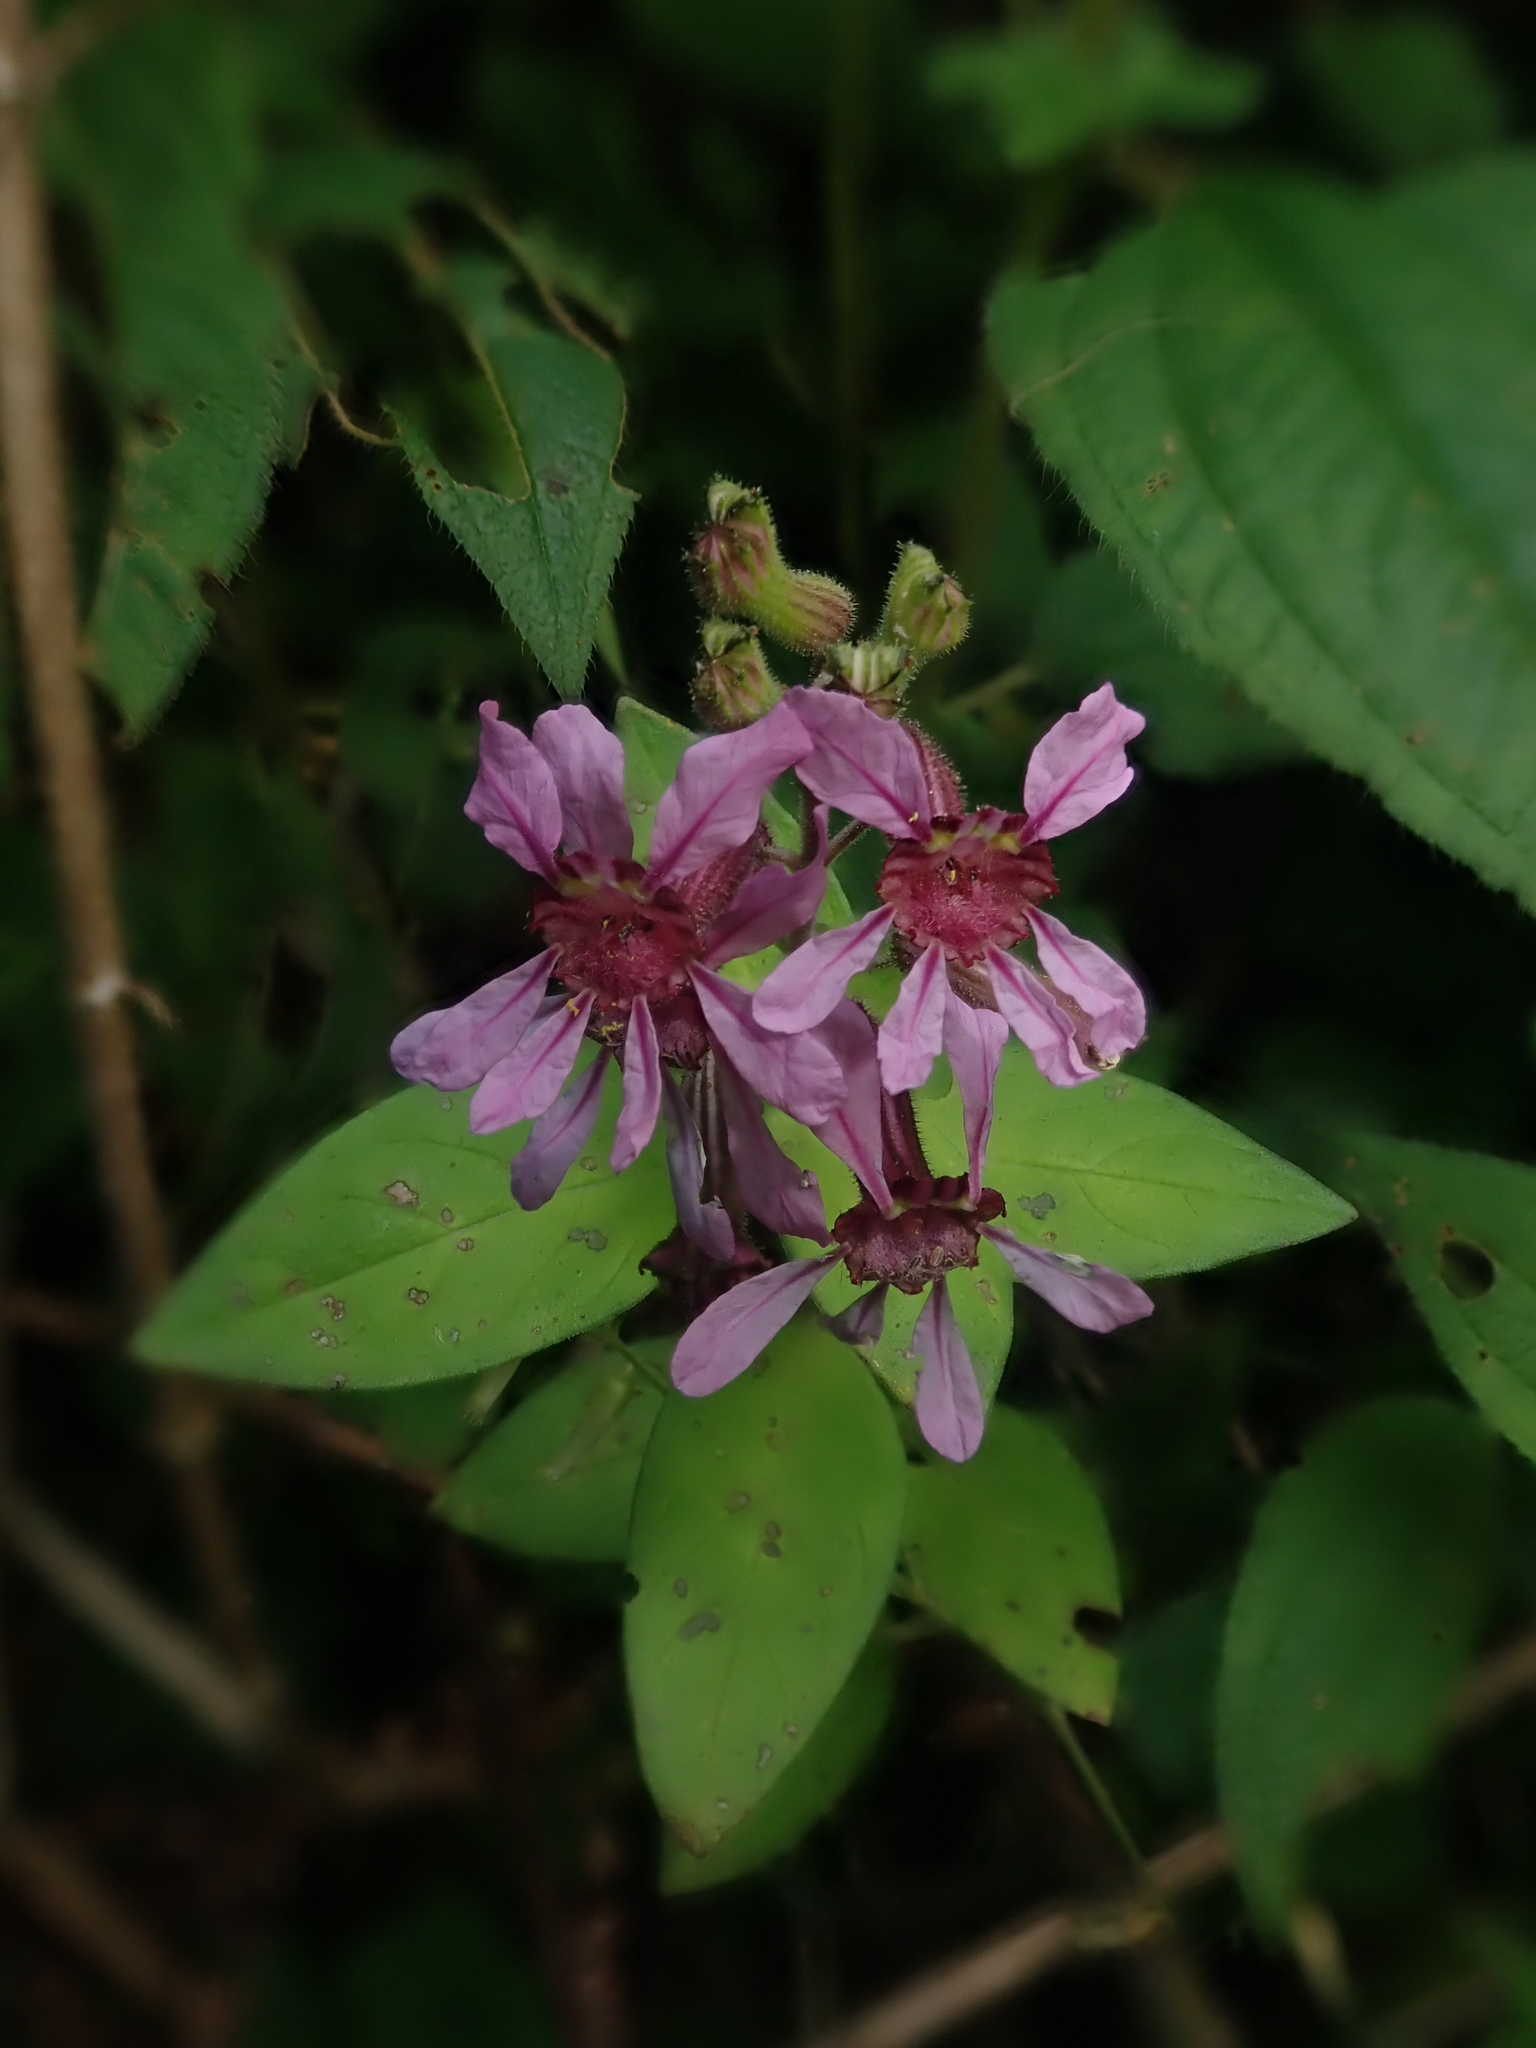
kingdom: Plantae
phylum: Tracheophyta
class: Magnoliopsida
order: Myrtales
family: Lythraceae
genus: Cuphea
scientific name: Cuphea carthagenensis
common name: Colombian waxweed
